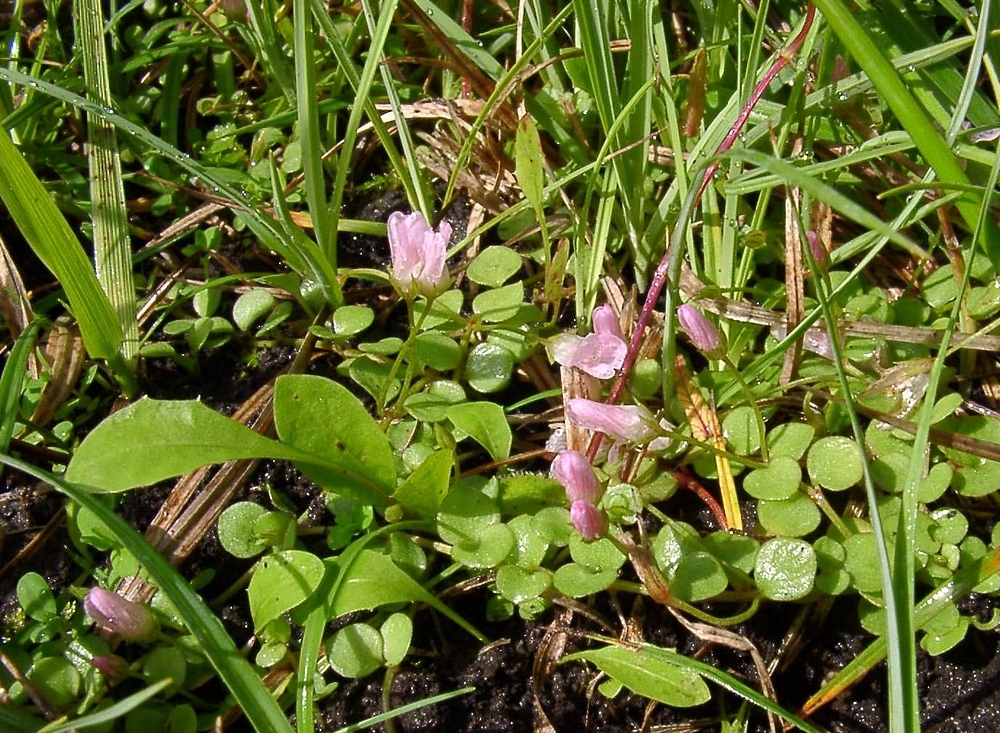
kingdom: Plantae
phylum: Tracheophyta
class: Magnoliopsida
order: Ericales
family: Primulaceae
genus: Lysimachia
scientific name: Lysimachia tenella
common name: European bog pimpernel
